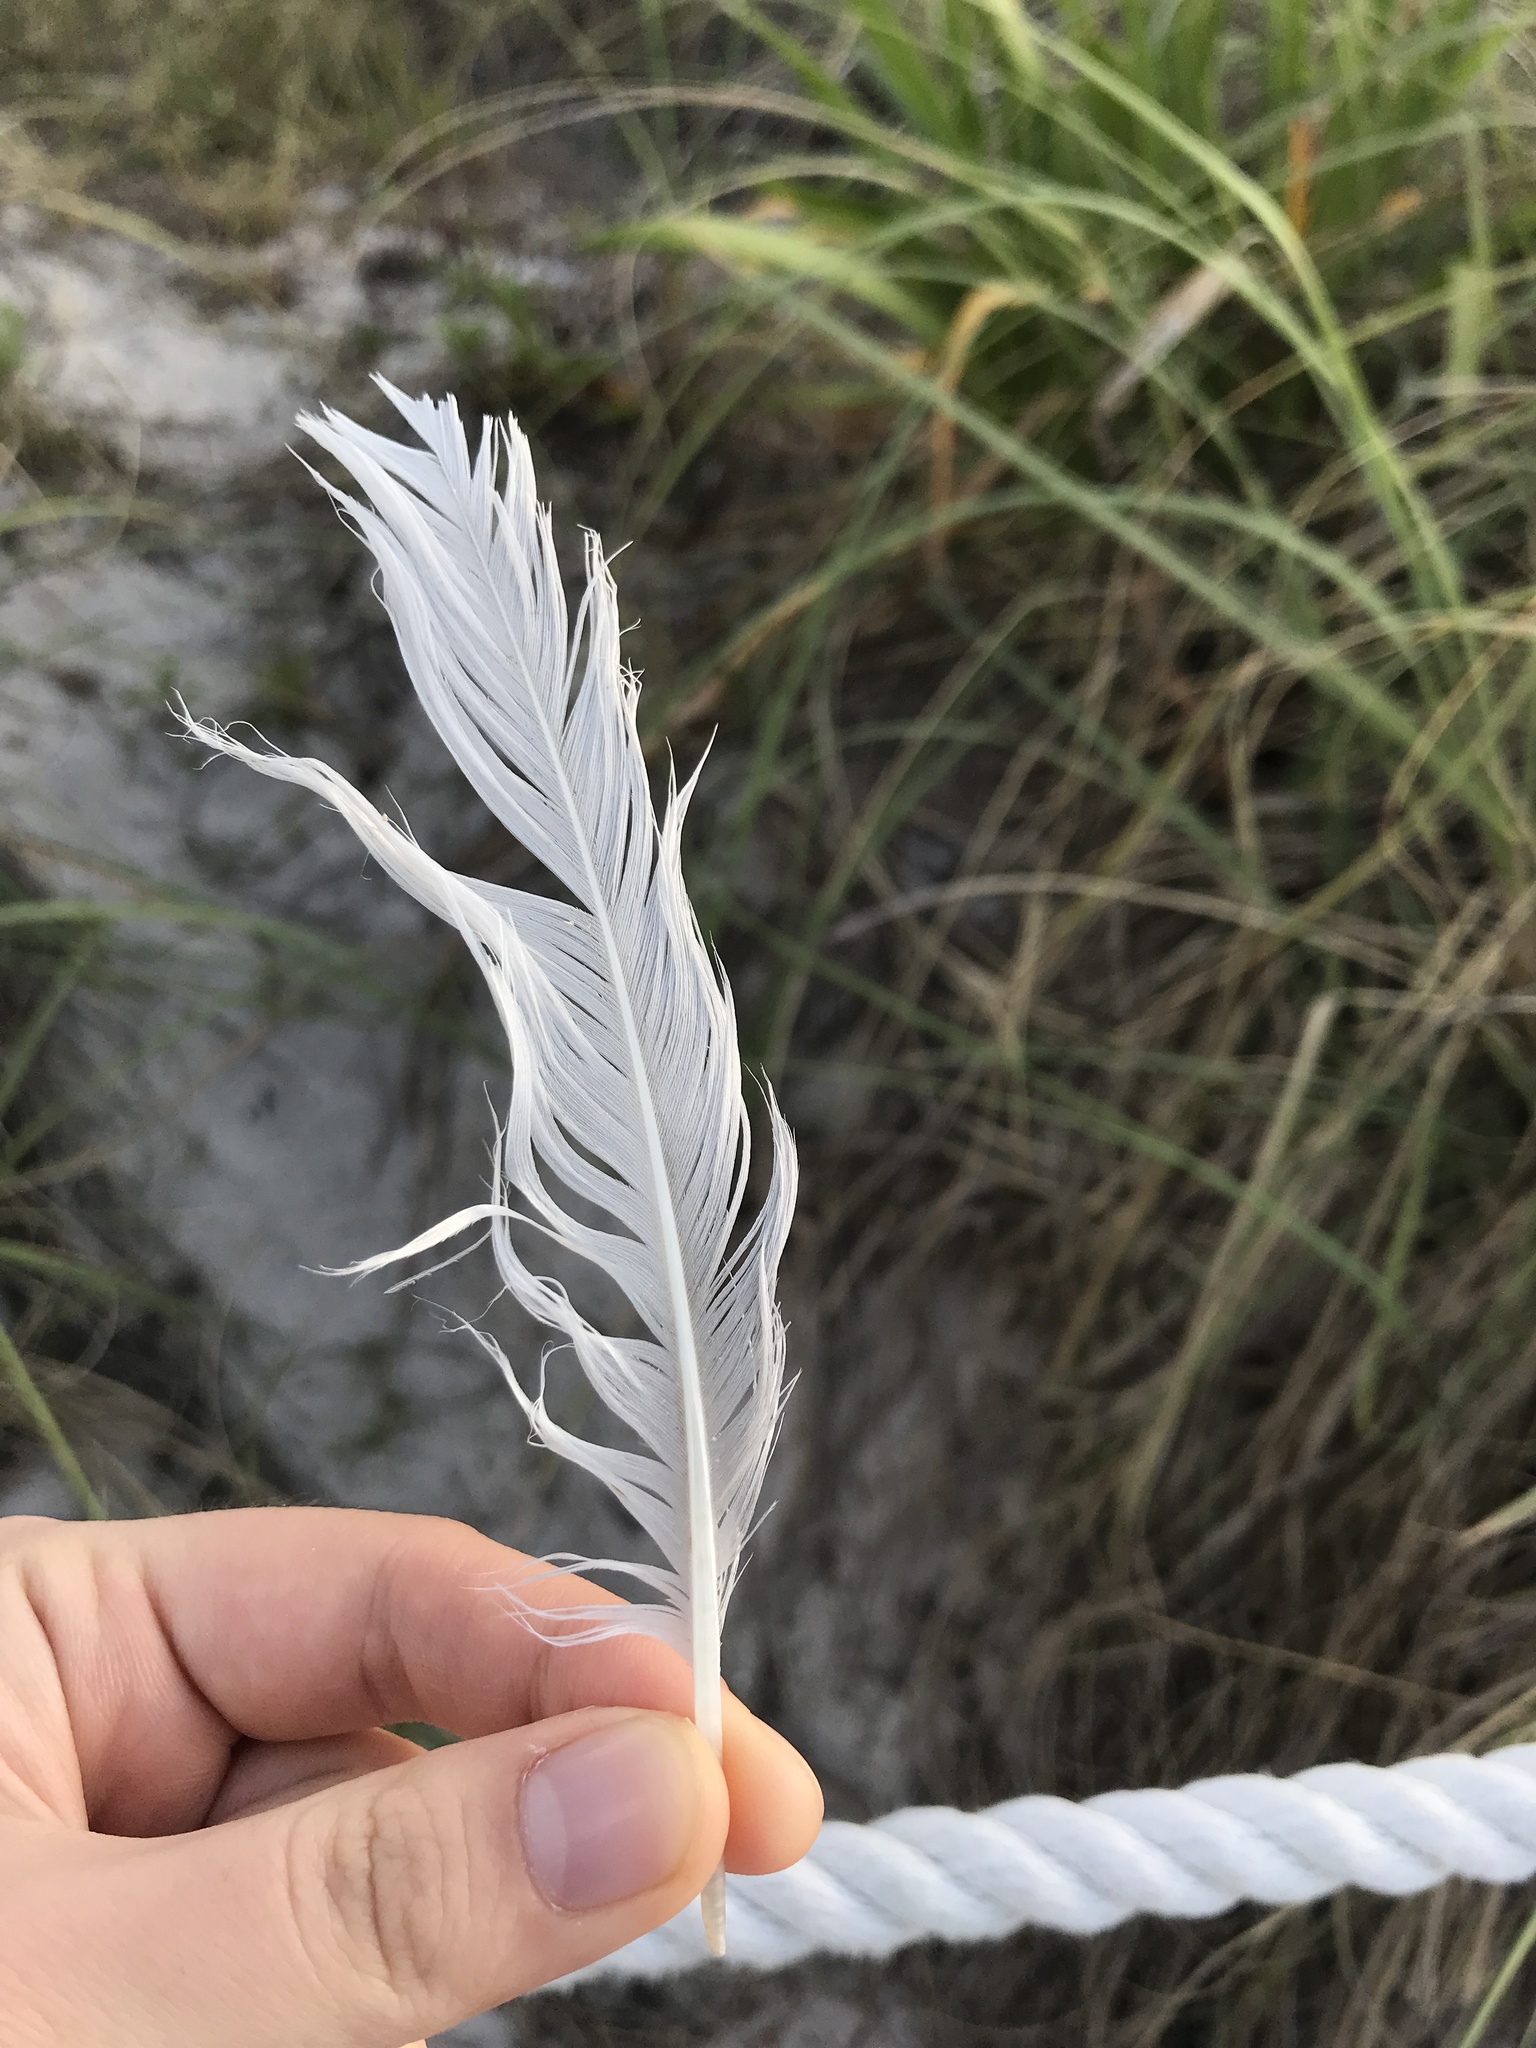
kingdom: Animalia
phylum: Chordata
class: Aves
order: Charadriiformes
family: Laridae
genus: Leucophaeus
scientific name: Leucophaeus atricilla
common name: Laughing gull
